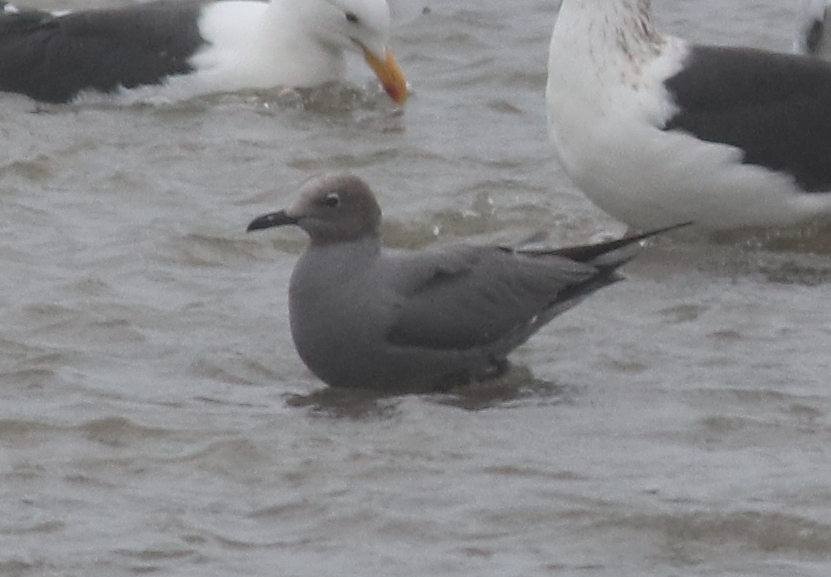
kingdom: Animalia
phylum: Chordata
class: Aves
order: Charadriiformes
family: Laridae
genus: Leucophaeus
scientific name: Leucophaeus modestus
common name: Gray gull
